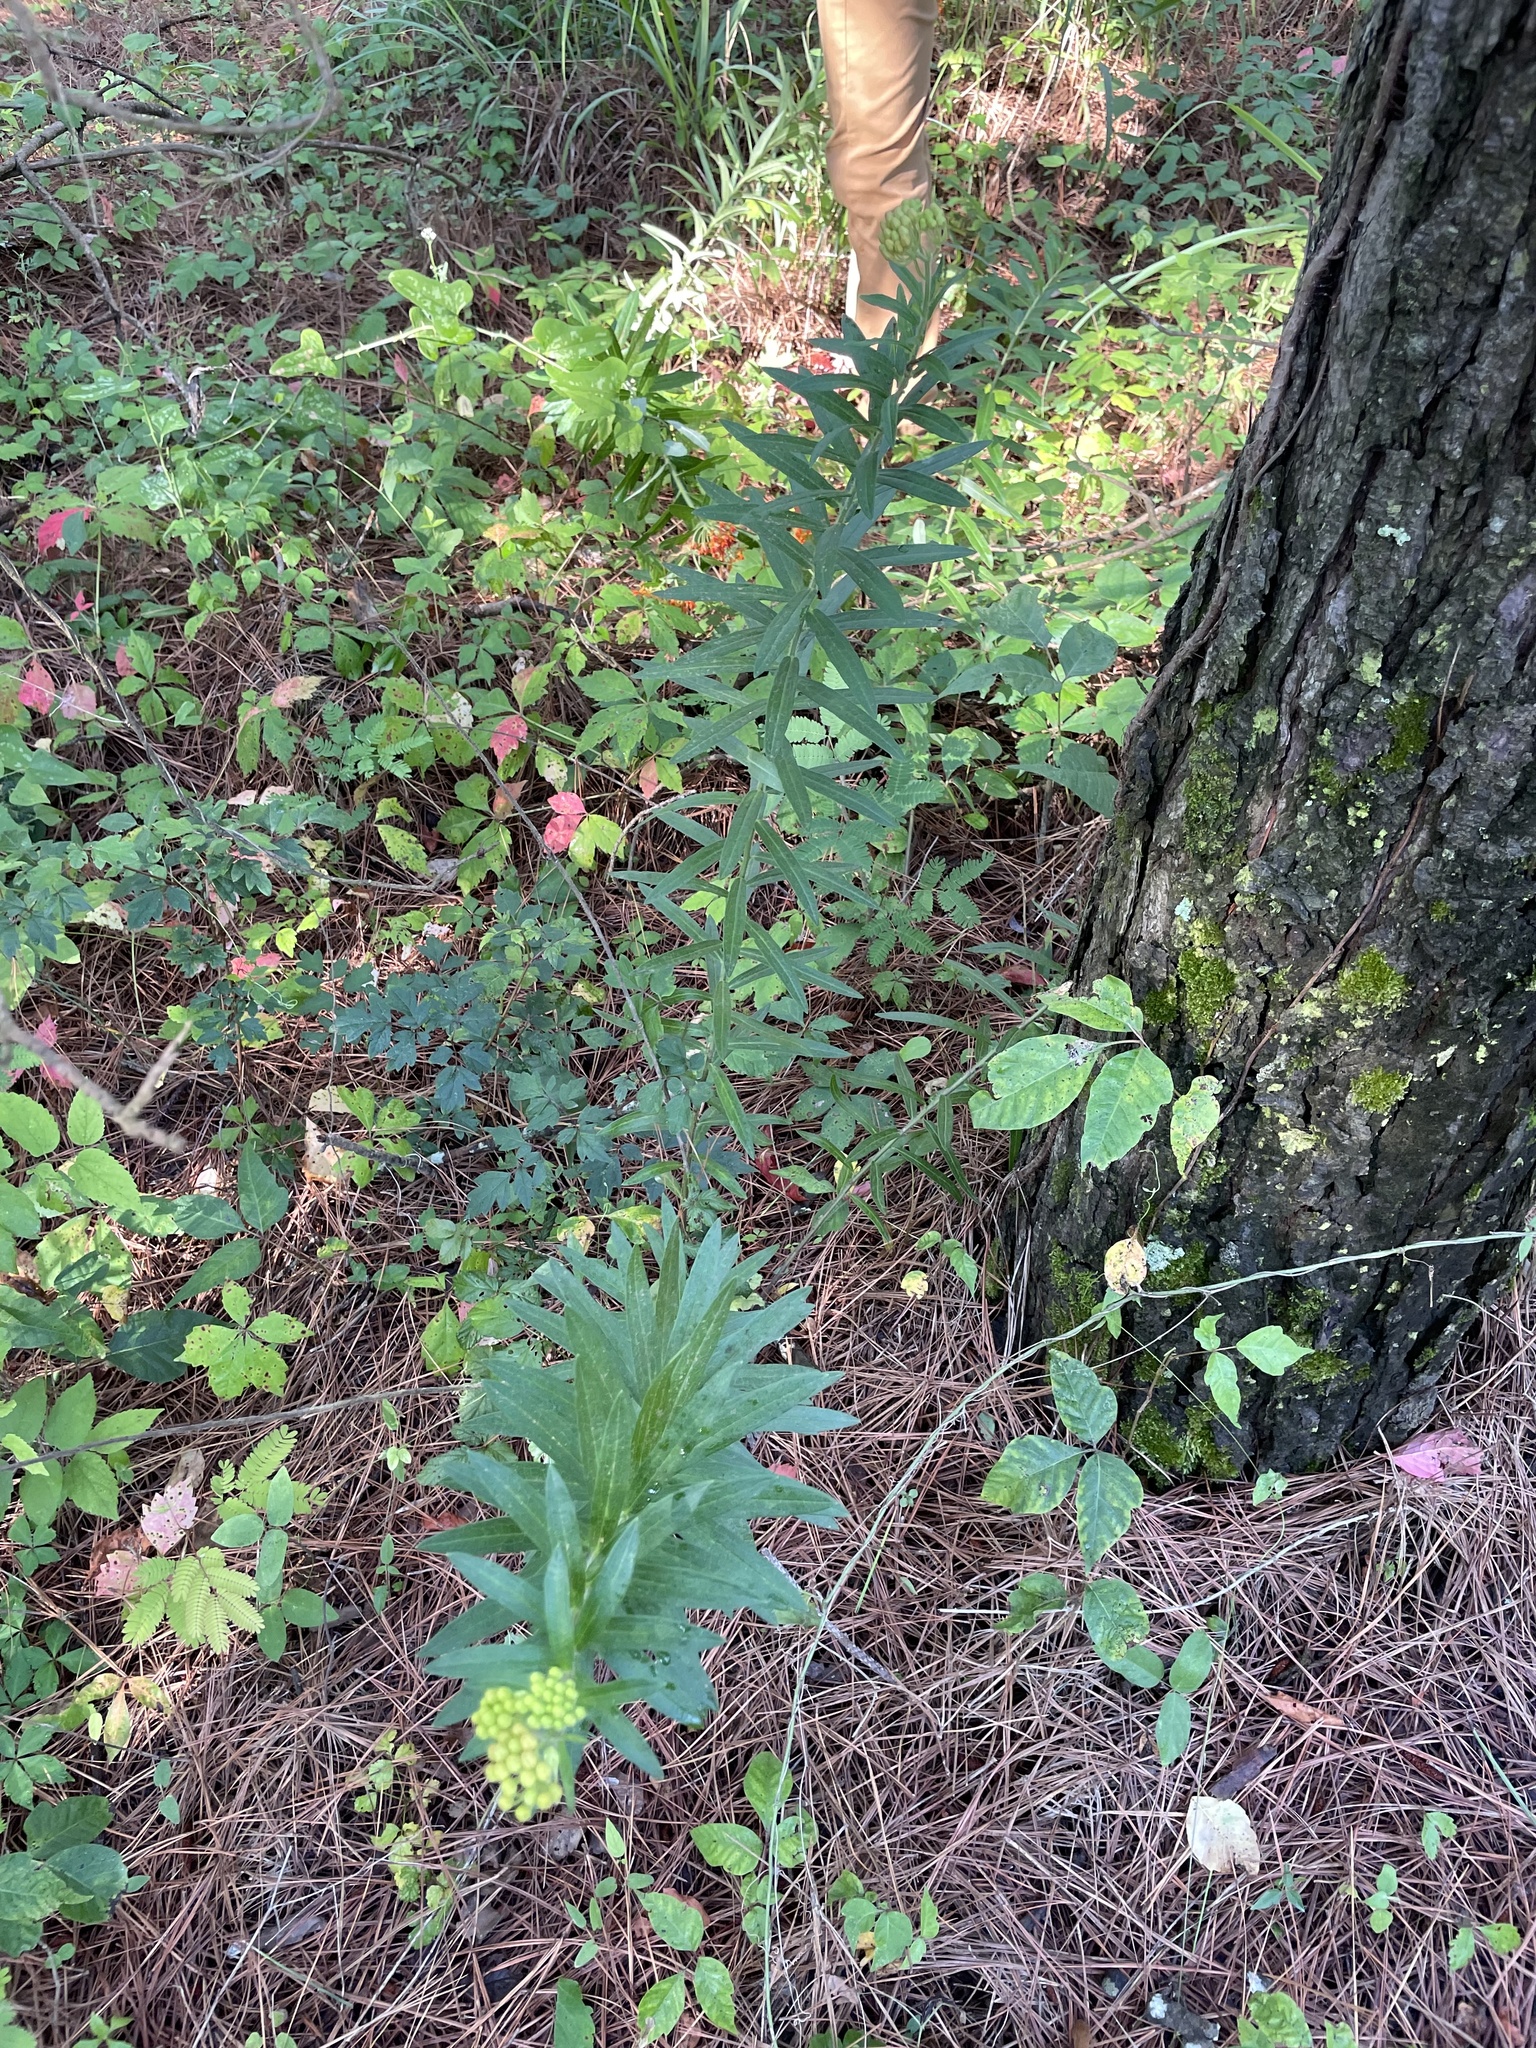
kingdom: Plantae
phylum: Tracheophyta
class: Magnoliopsida
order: Gentianales
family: Apocynaceae
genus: Asclepias
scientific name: Asclepias tuberosa
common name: Butterfly milkweed
